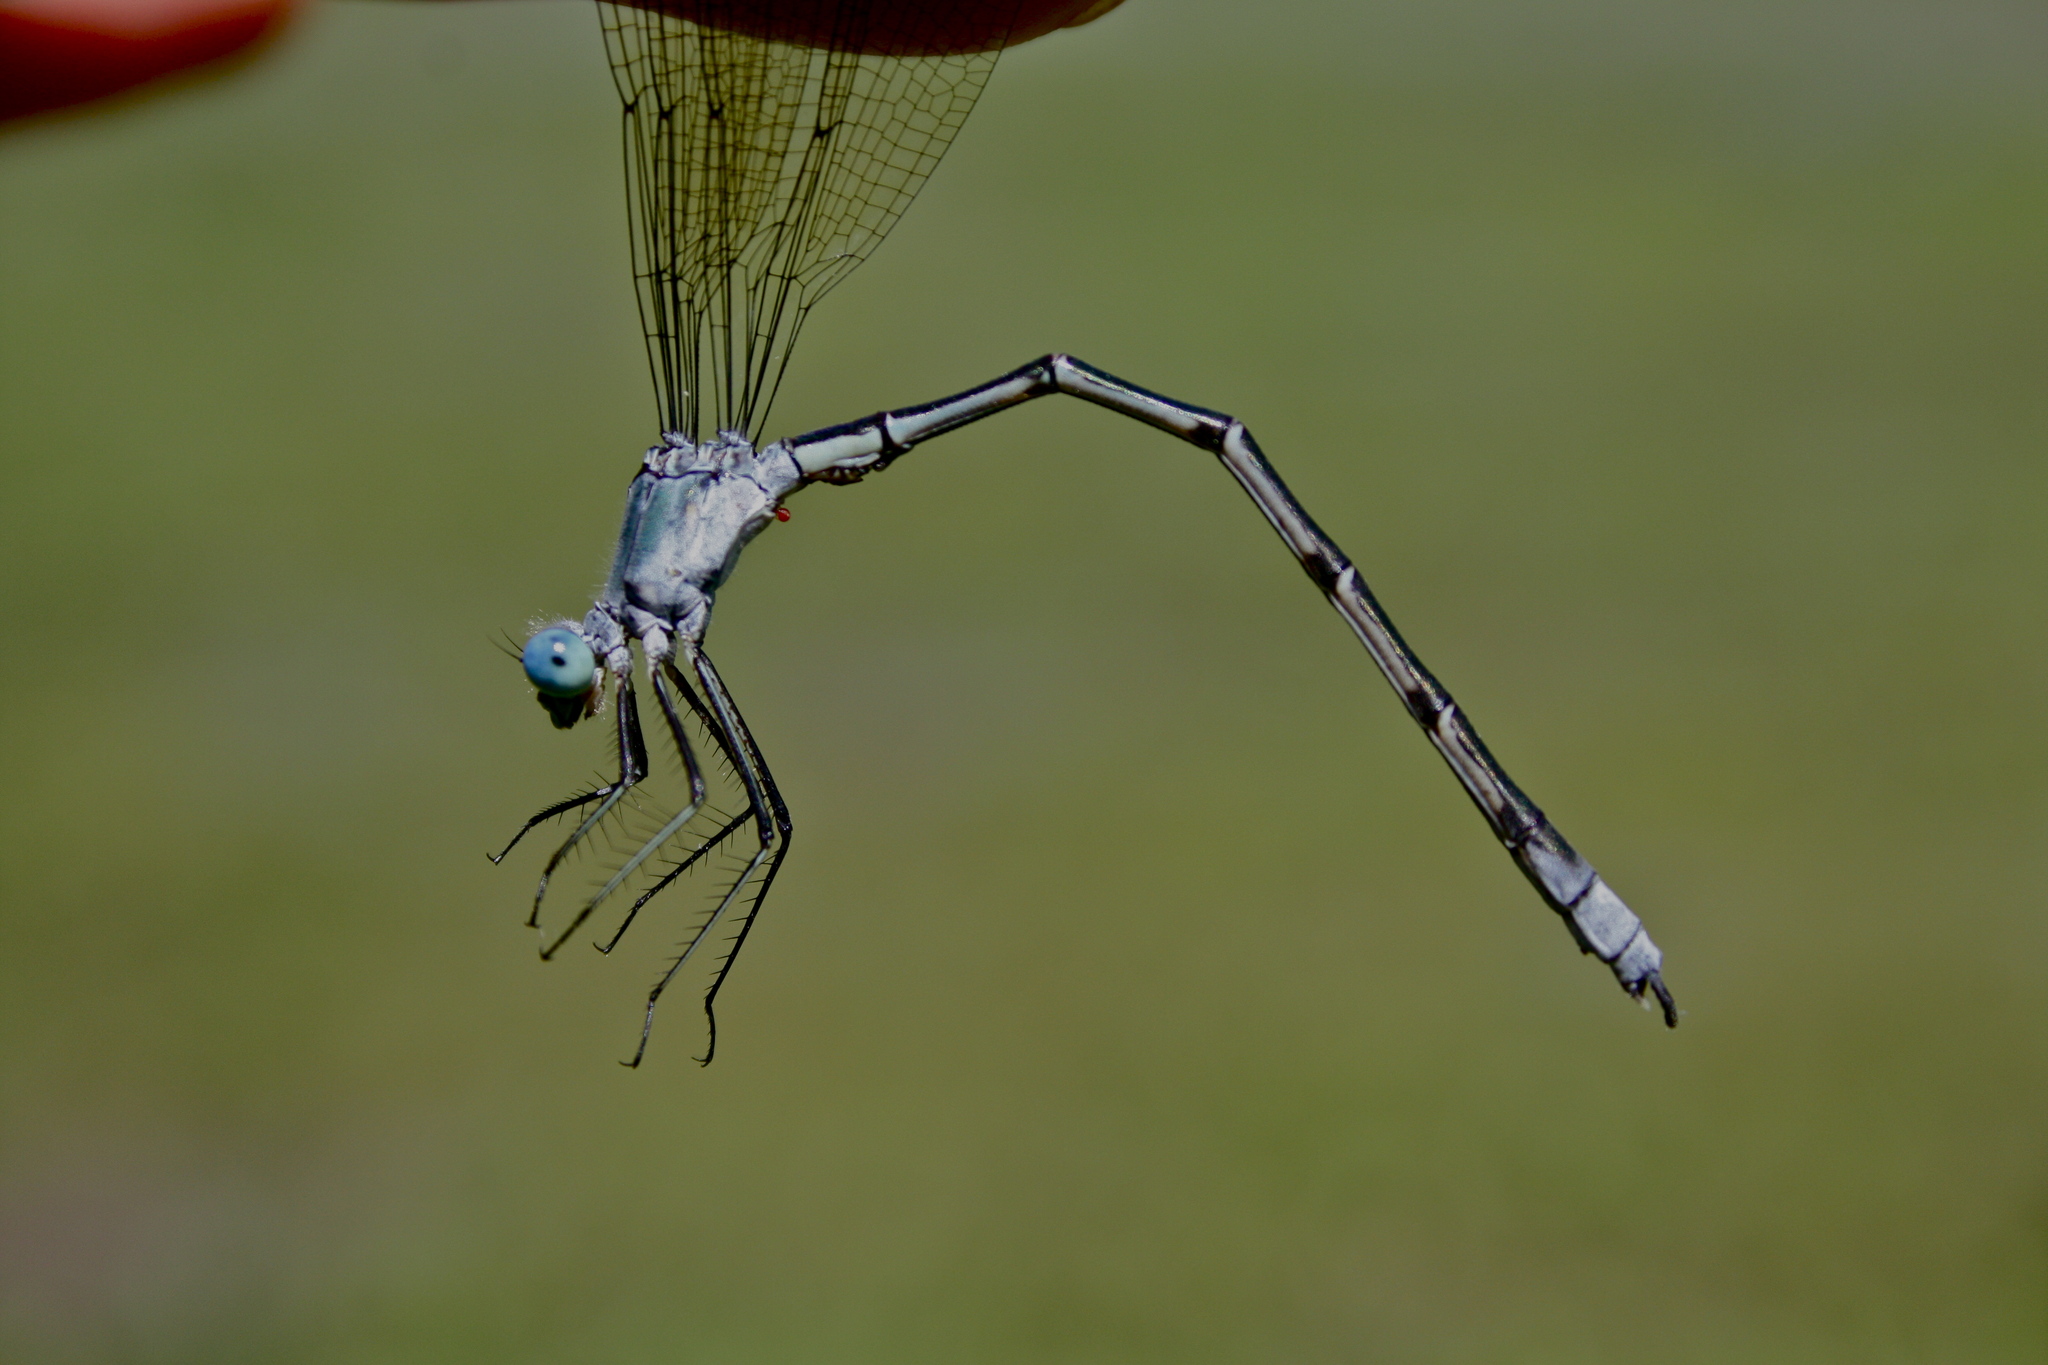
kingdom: Animalia
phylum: Arthropoda
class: Insecta
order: Odonata
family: Lestidae
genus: Lestes
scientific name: Lestes eurinus
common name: Amber-winged spreadwing
